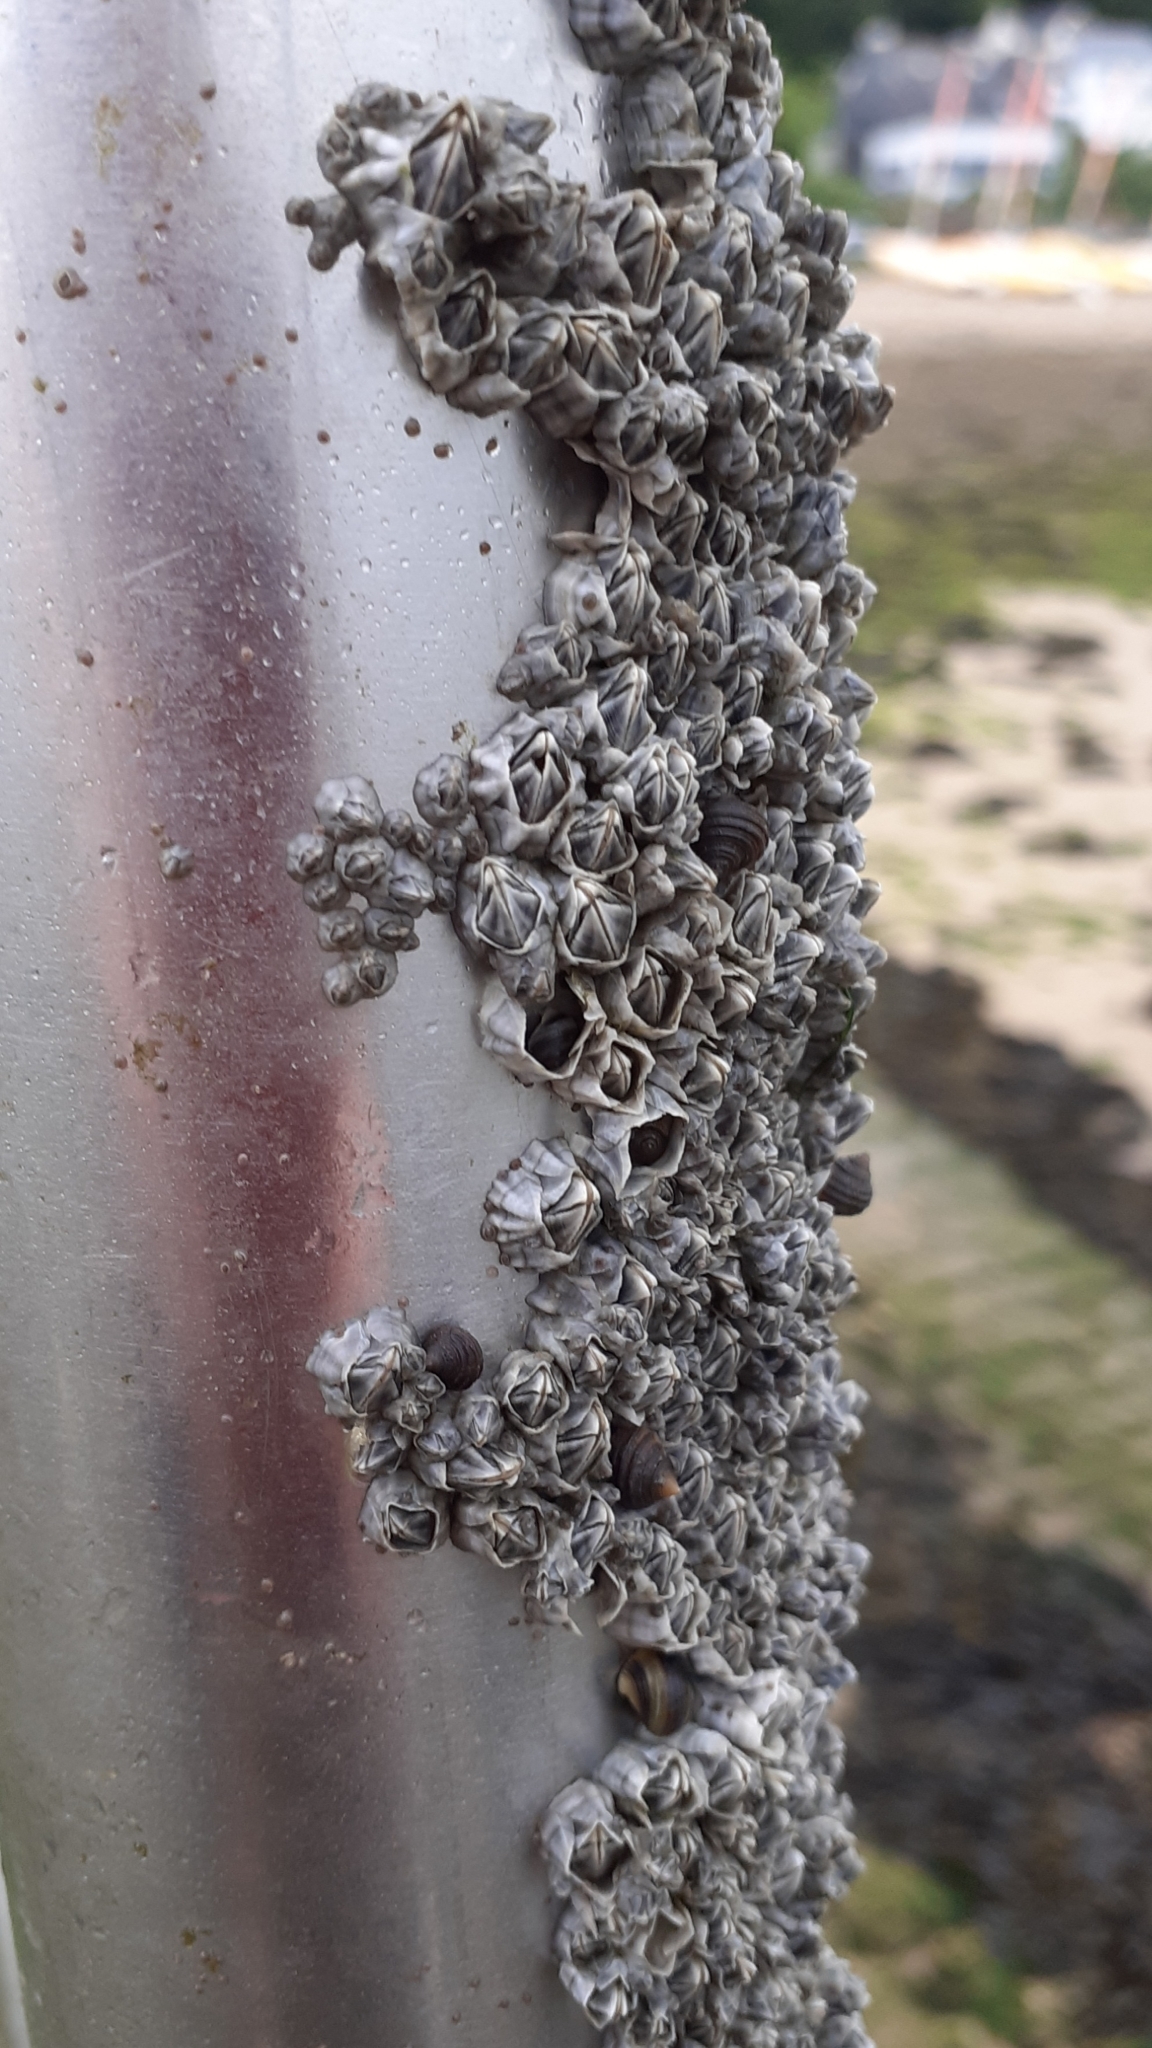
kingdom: Animalia
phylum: Arthropoda
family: Elminiidae
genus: Austrominius
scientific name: Austrominius modestus
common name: Australasian barnacle
